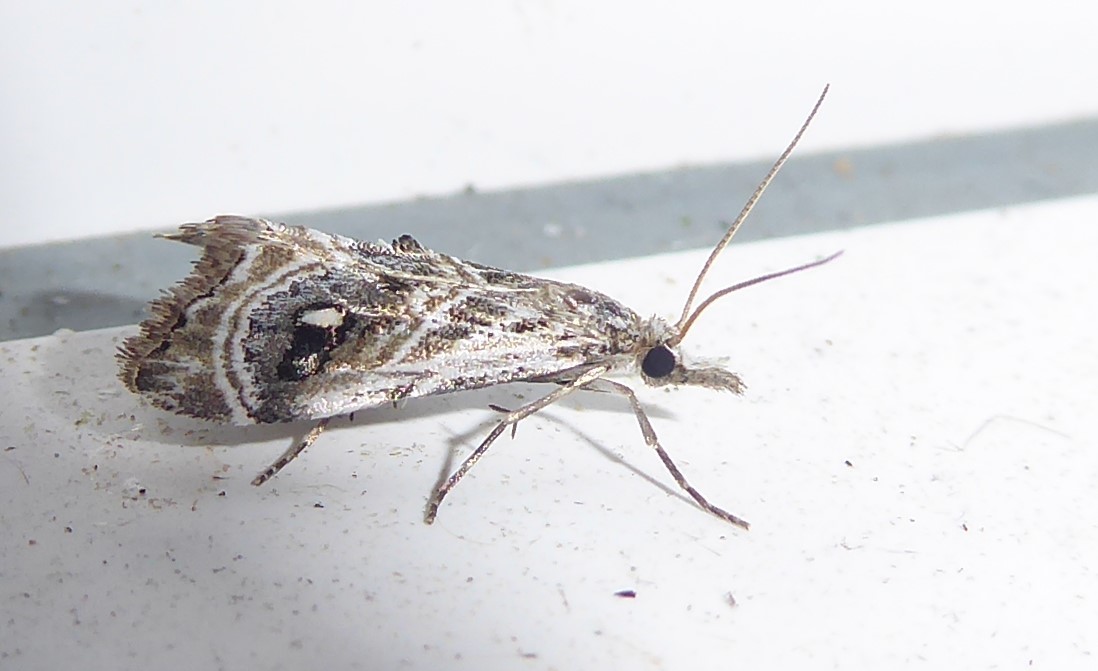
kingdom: Animalia
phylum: Arthropoda
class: Insecta
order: Lepidoptera
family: Crambidae
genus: Gadira
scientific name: Gadira acerella
